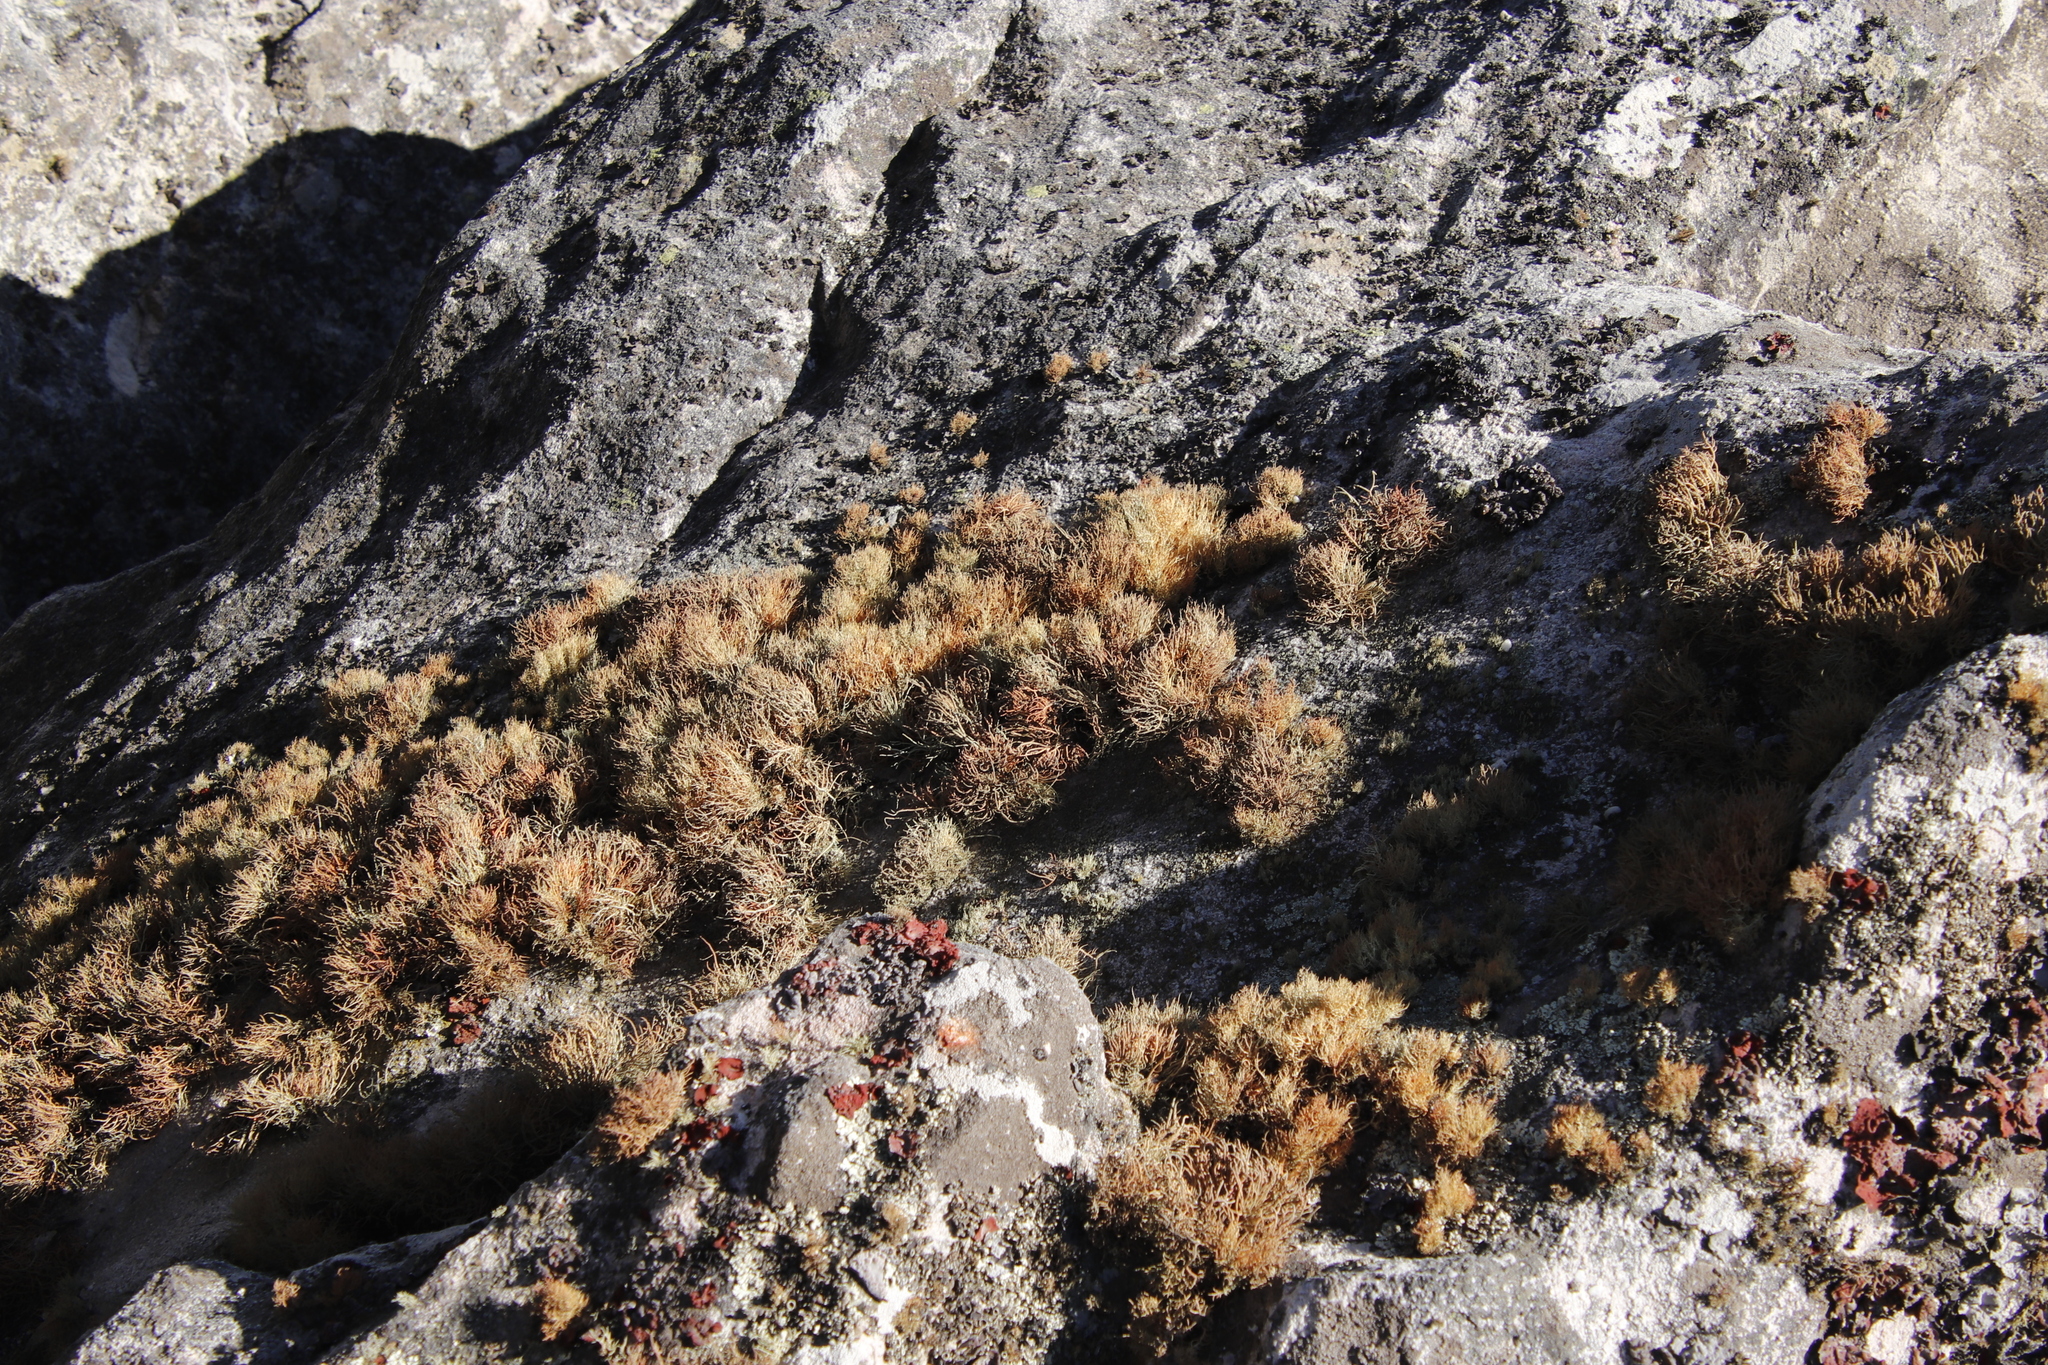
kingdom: Fungi
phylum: Ascomycota
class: Lecanoromycetes
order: Lecanorales
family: Parmeliaceae
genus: Usnea
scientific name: Usnea maculata
